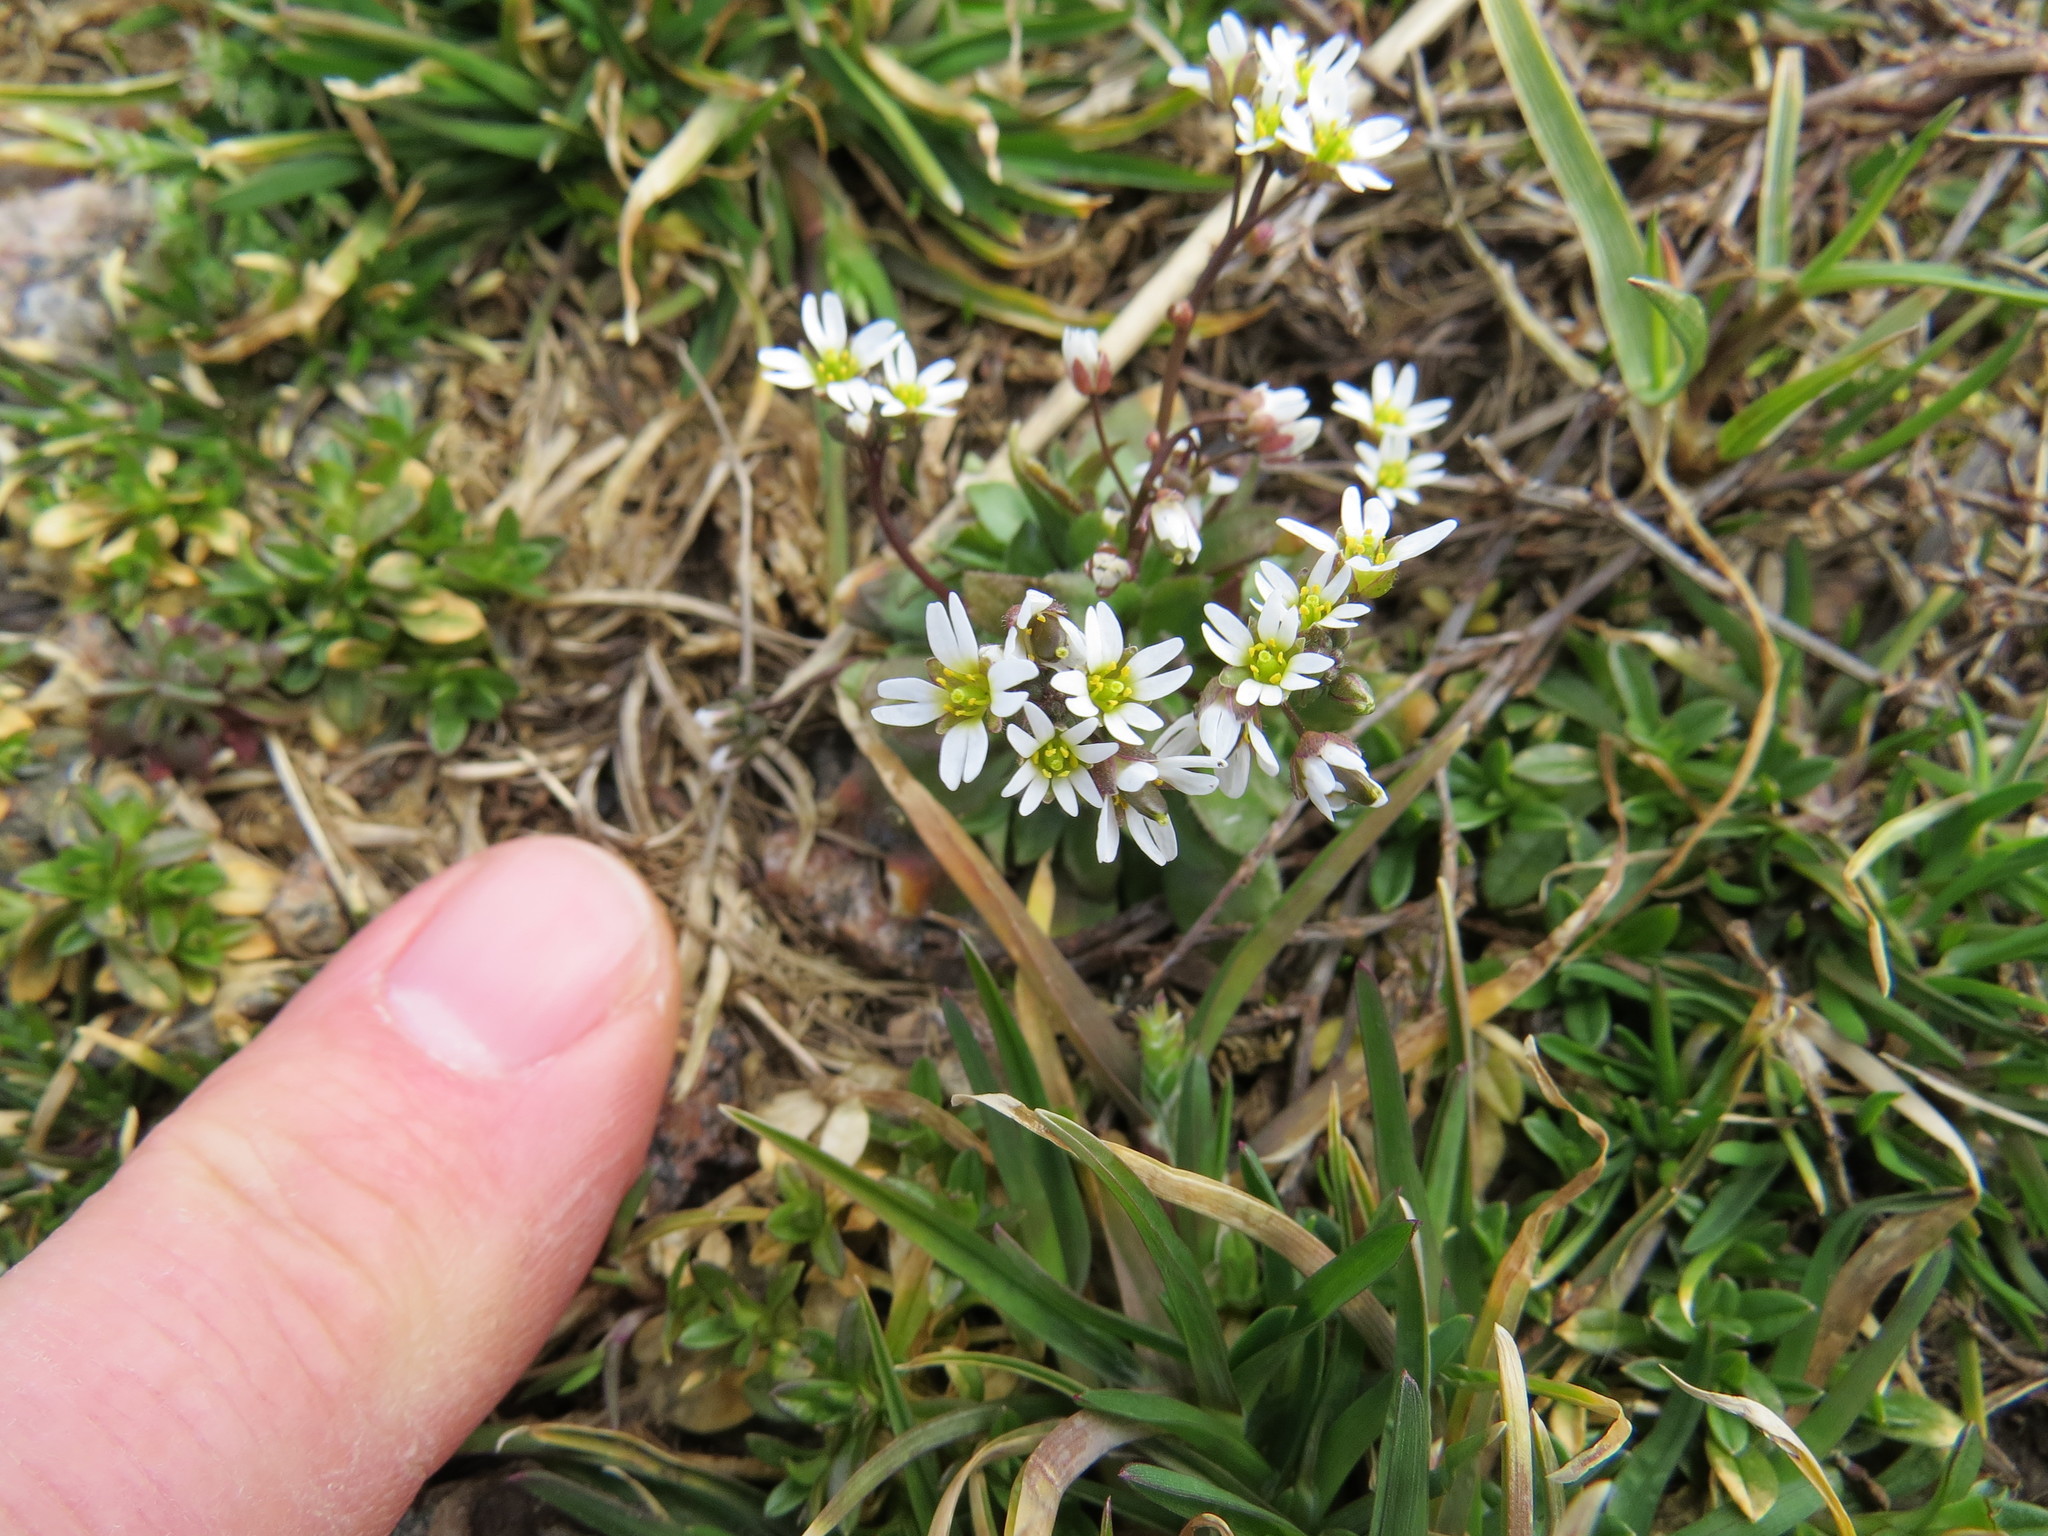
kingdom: Plantae
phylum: Tracheophyta
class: Magnoliopsida
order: Brassicales
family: Brassicaceae
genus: Draba
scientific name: Draba verna
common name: Spring draba
